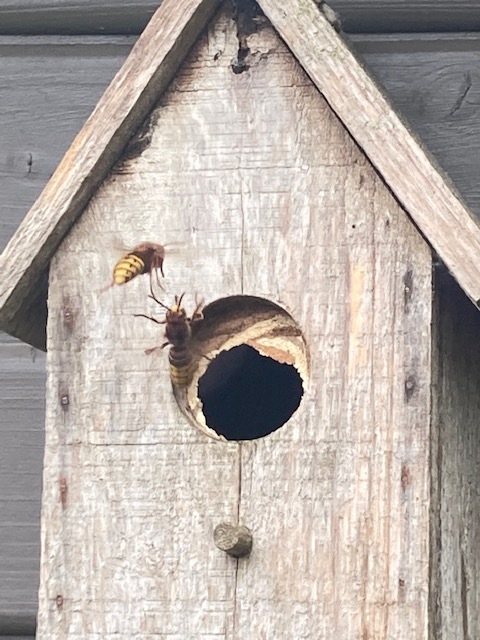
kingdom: Animalia
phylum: Arthropoda
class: Insecta
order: Hymenoptera
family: Vespidae
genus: Vespa
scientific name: Vespa crabro
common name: Hornet
